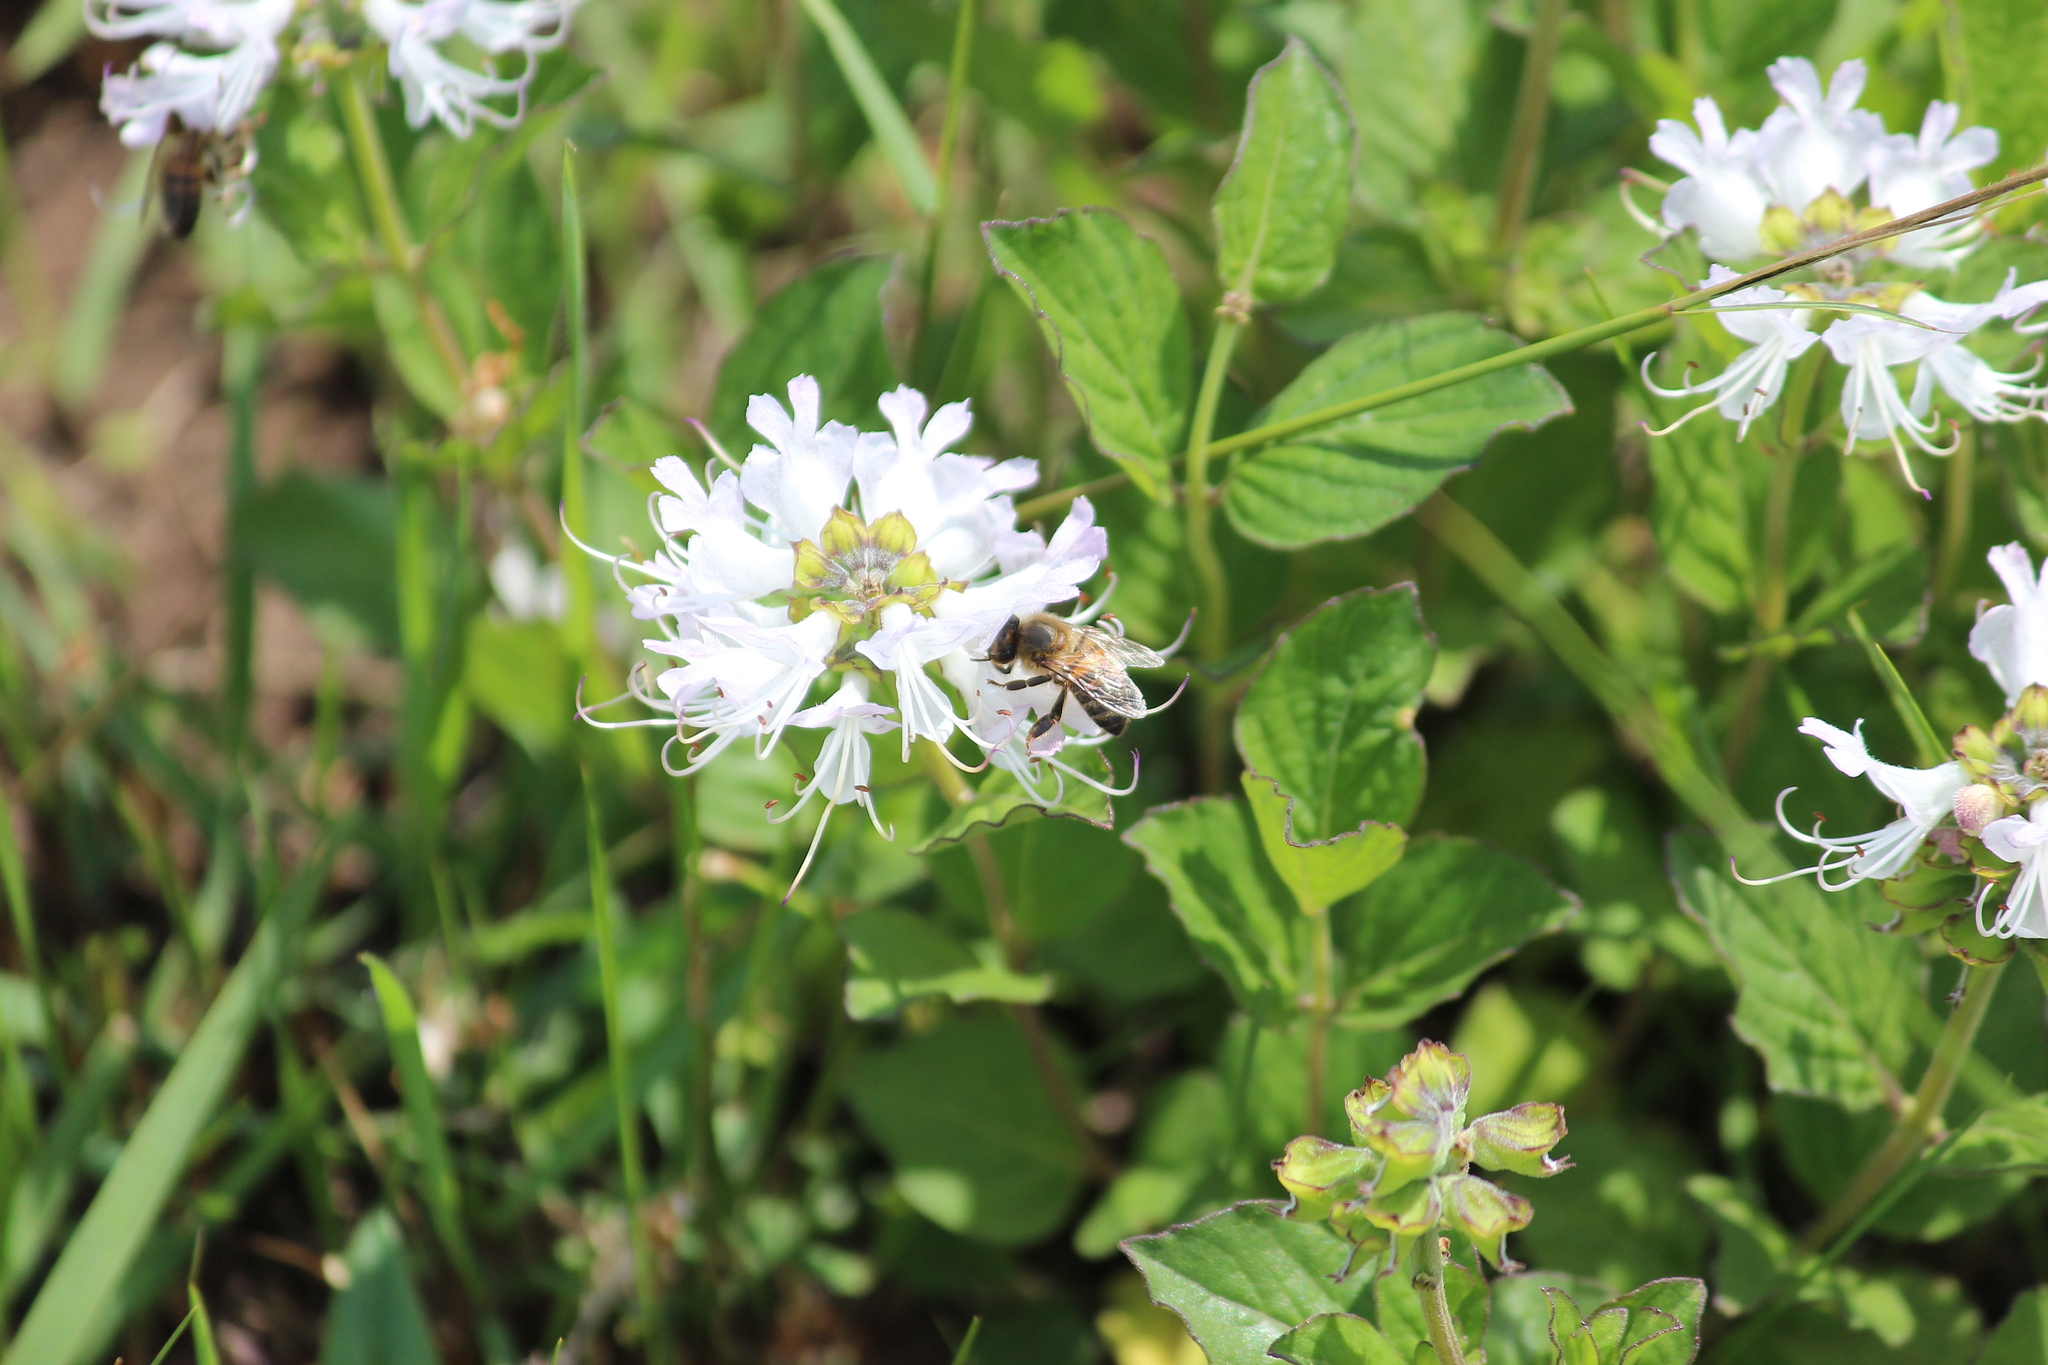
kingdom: Animalia
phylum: Arthropoda
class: Insecta
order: Hymenoptera
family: Apidae
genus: Apis
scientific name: Apis mellifera
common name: Honey bee
